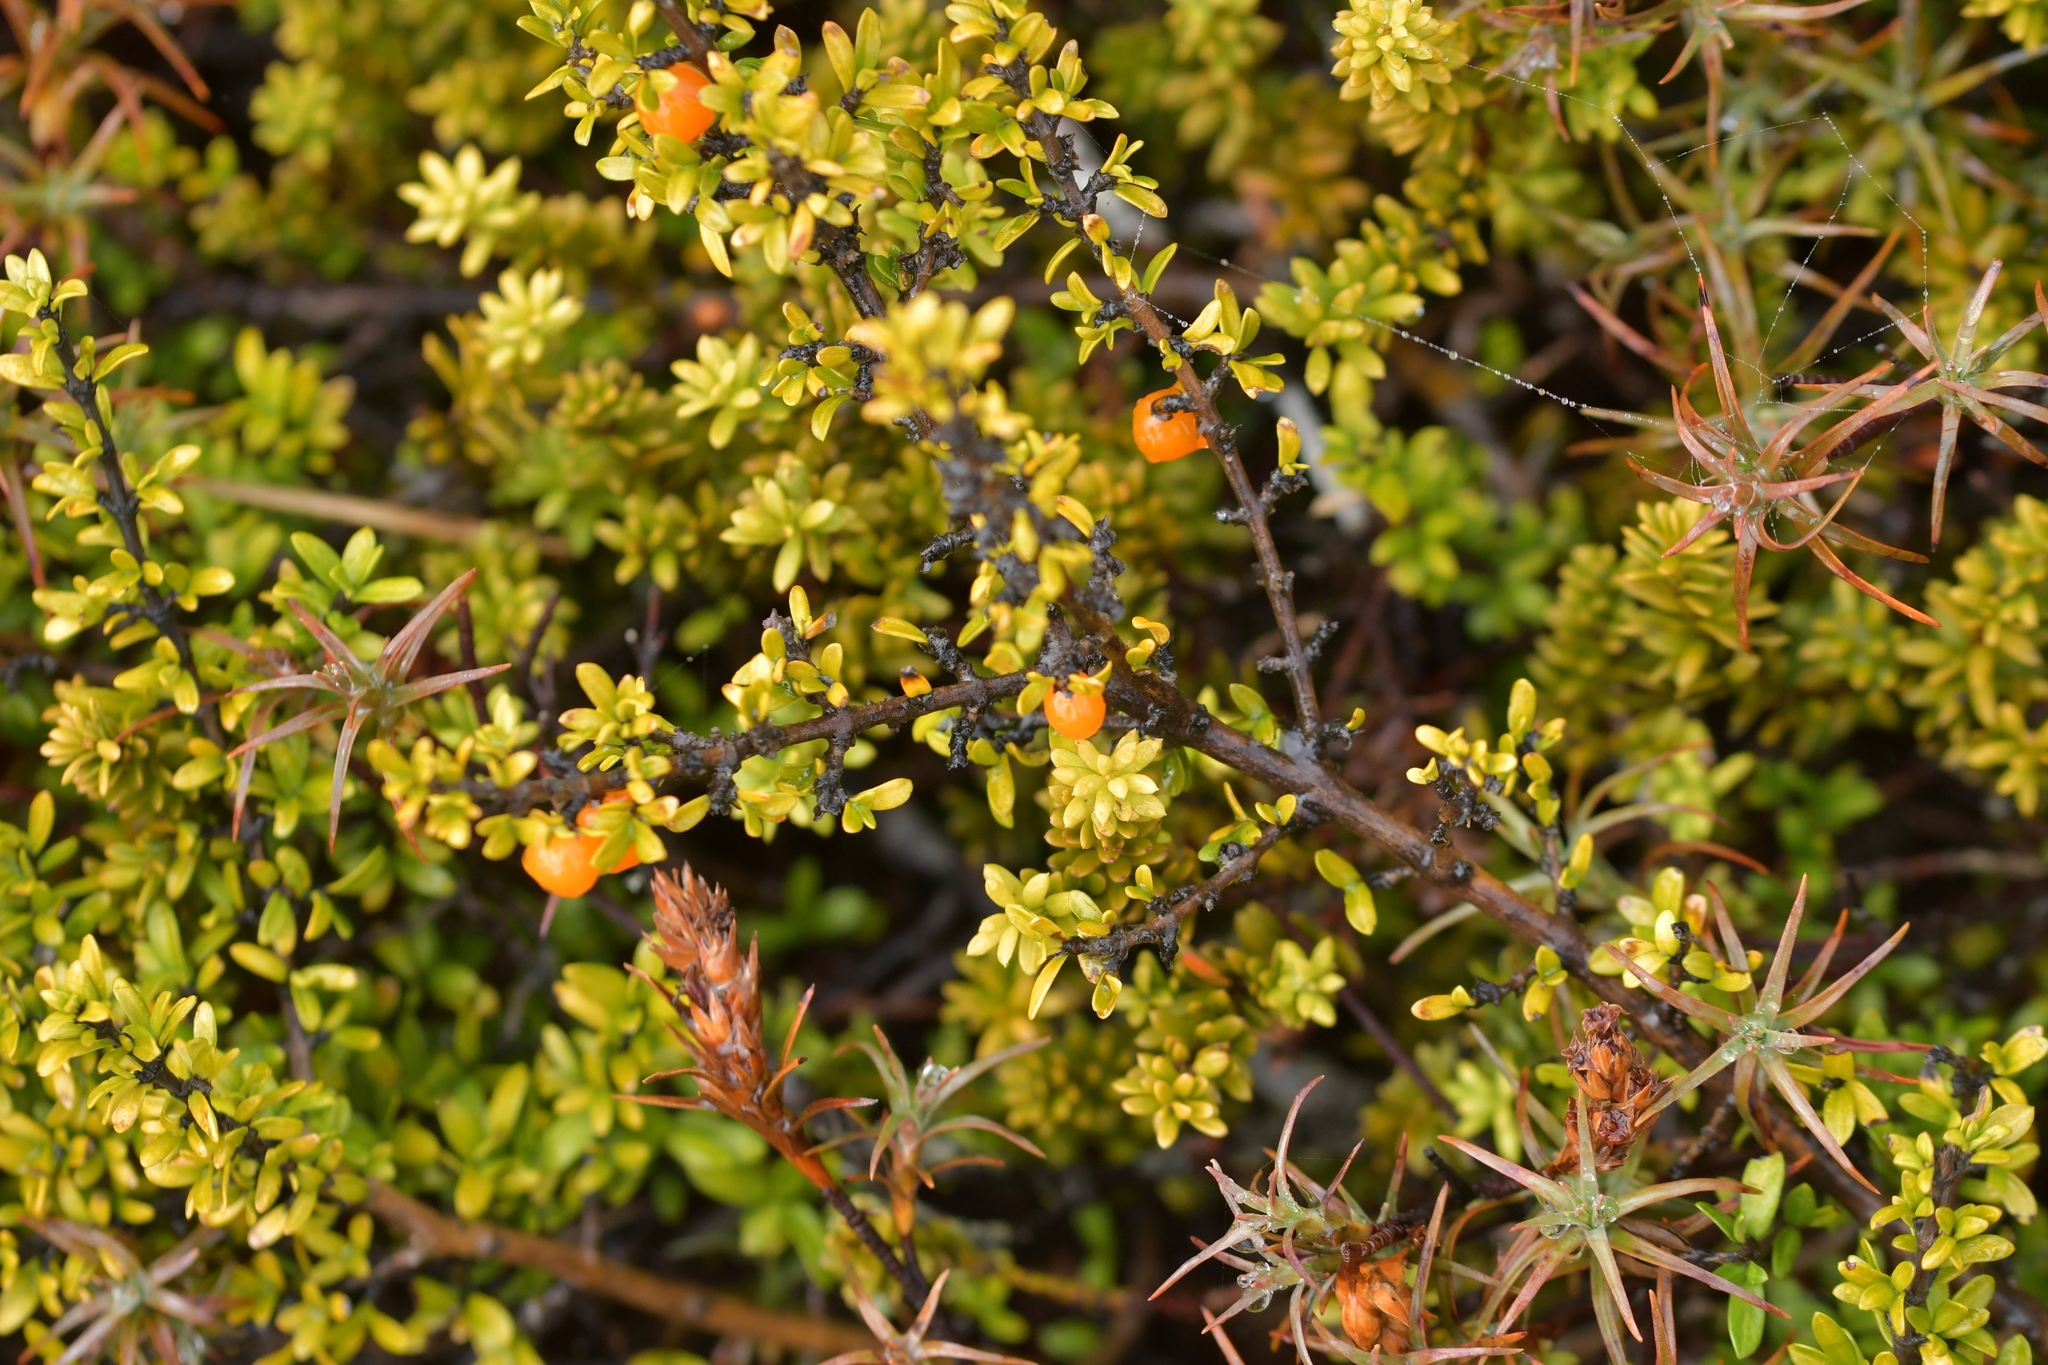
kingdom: Plantae
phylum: Tracheophyta
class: Magnoliopsida
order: Gentianales
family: Rubiaceae
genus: Coprosma
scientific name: Coprosma pseudocuneata
